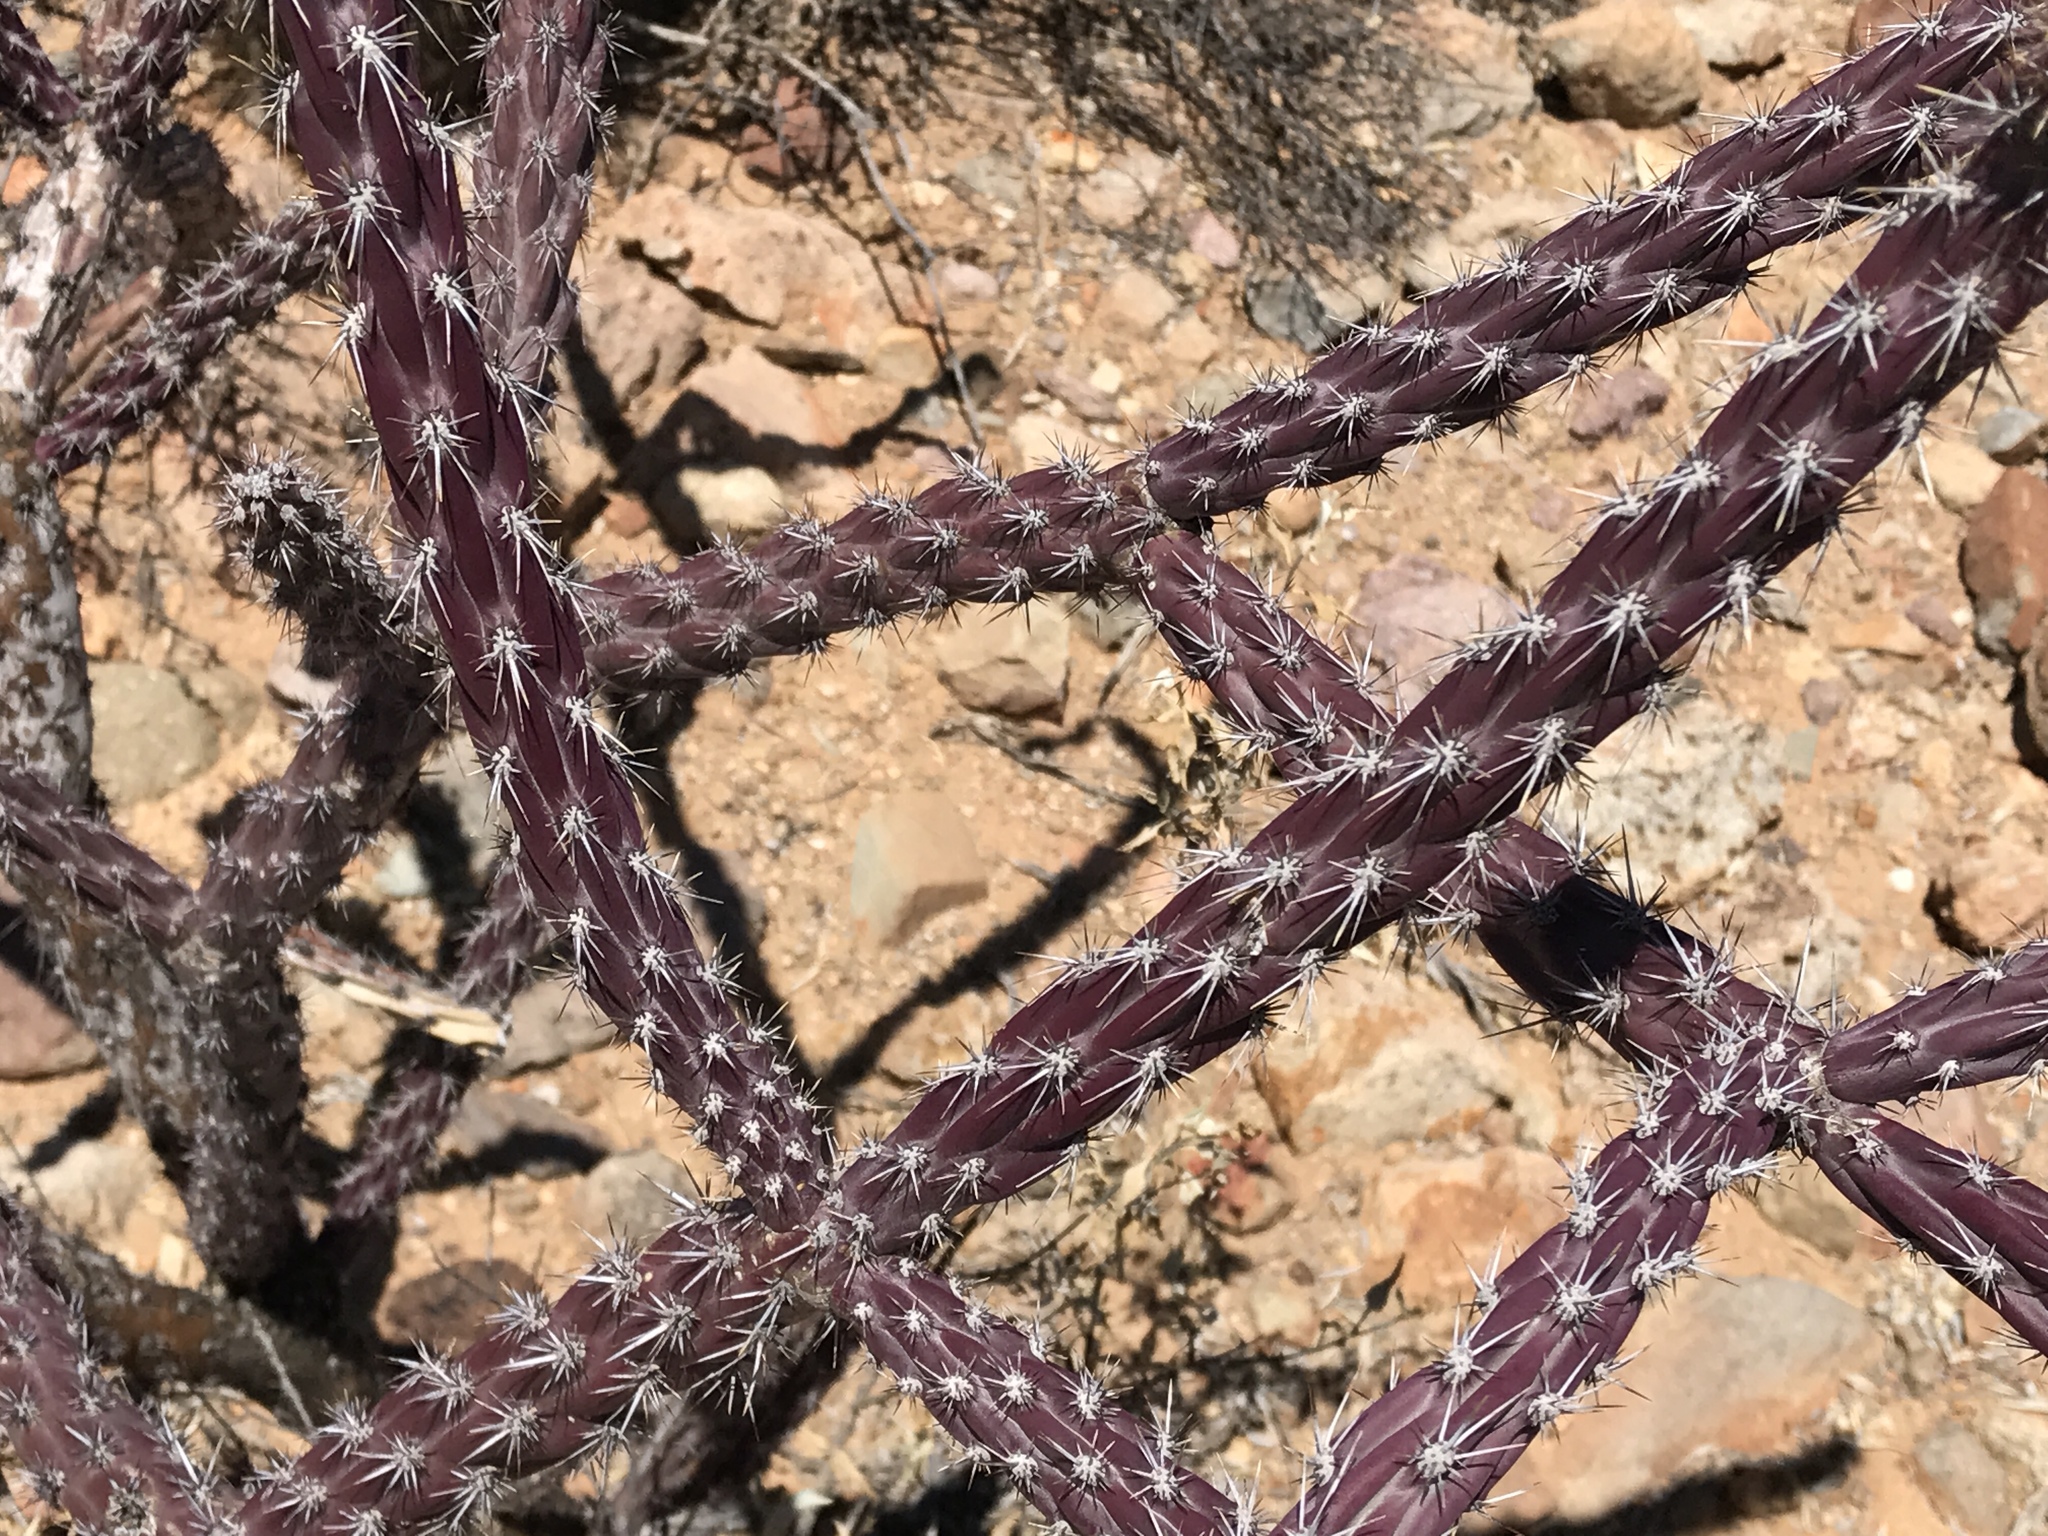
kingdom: Plantae
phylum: Tracheophyta
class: Magnoliopsida
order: Caryophyllales
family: Cactaceae
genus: Cylindropuntia
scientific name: Cylindropuntia thurberi
